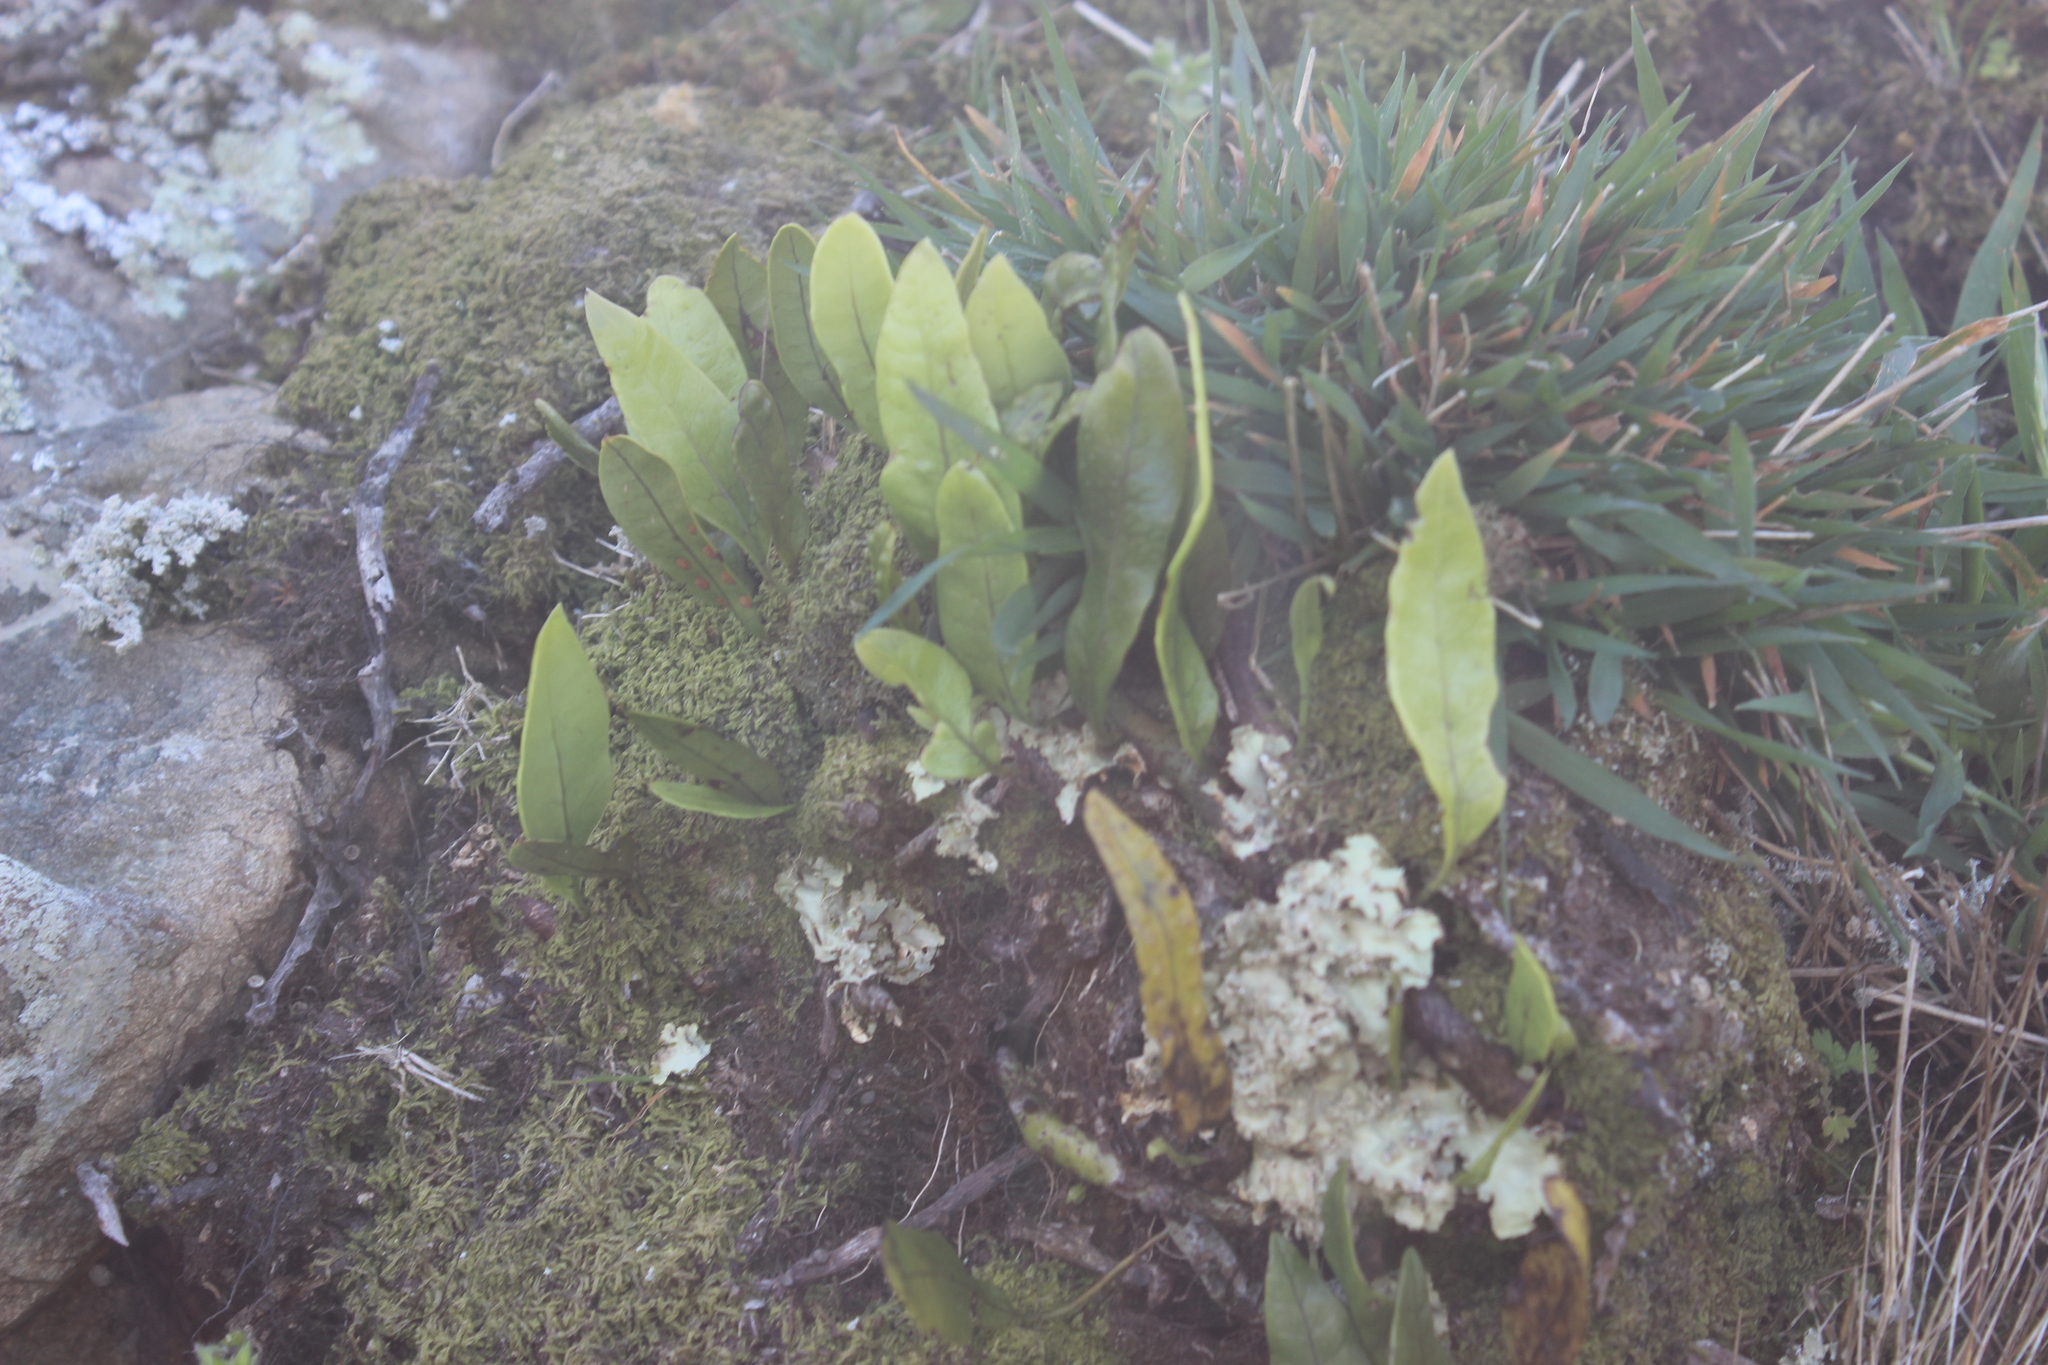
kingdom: Plantae
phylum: Tracheophyta
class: Polypodiopsida
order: Polypodiales
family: Polypodiaceae
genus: Lecanopteris
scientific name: Lecanopteris pustulata
